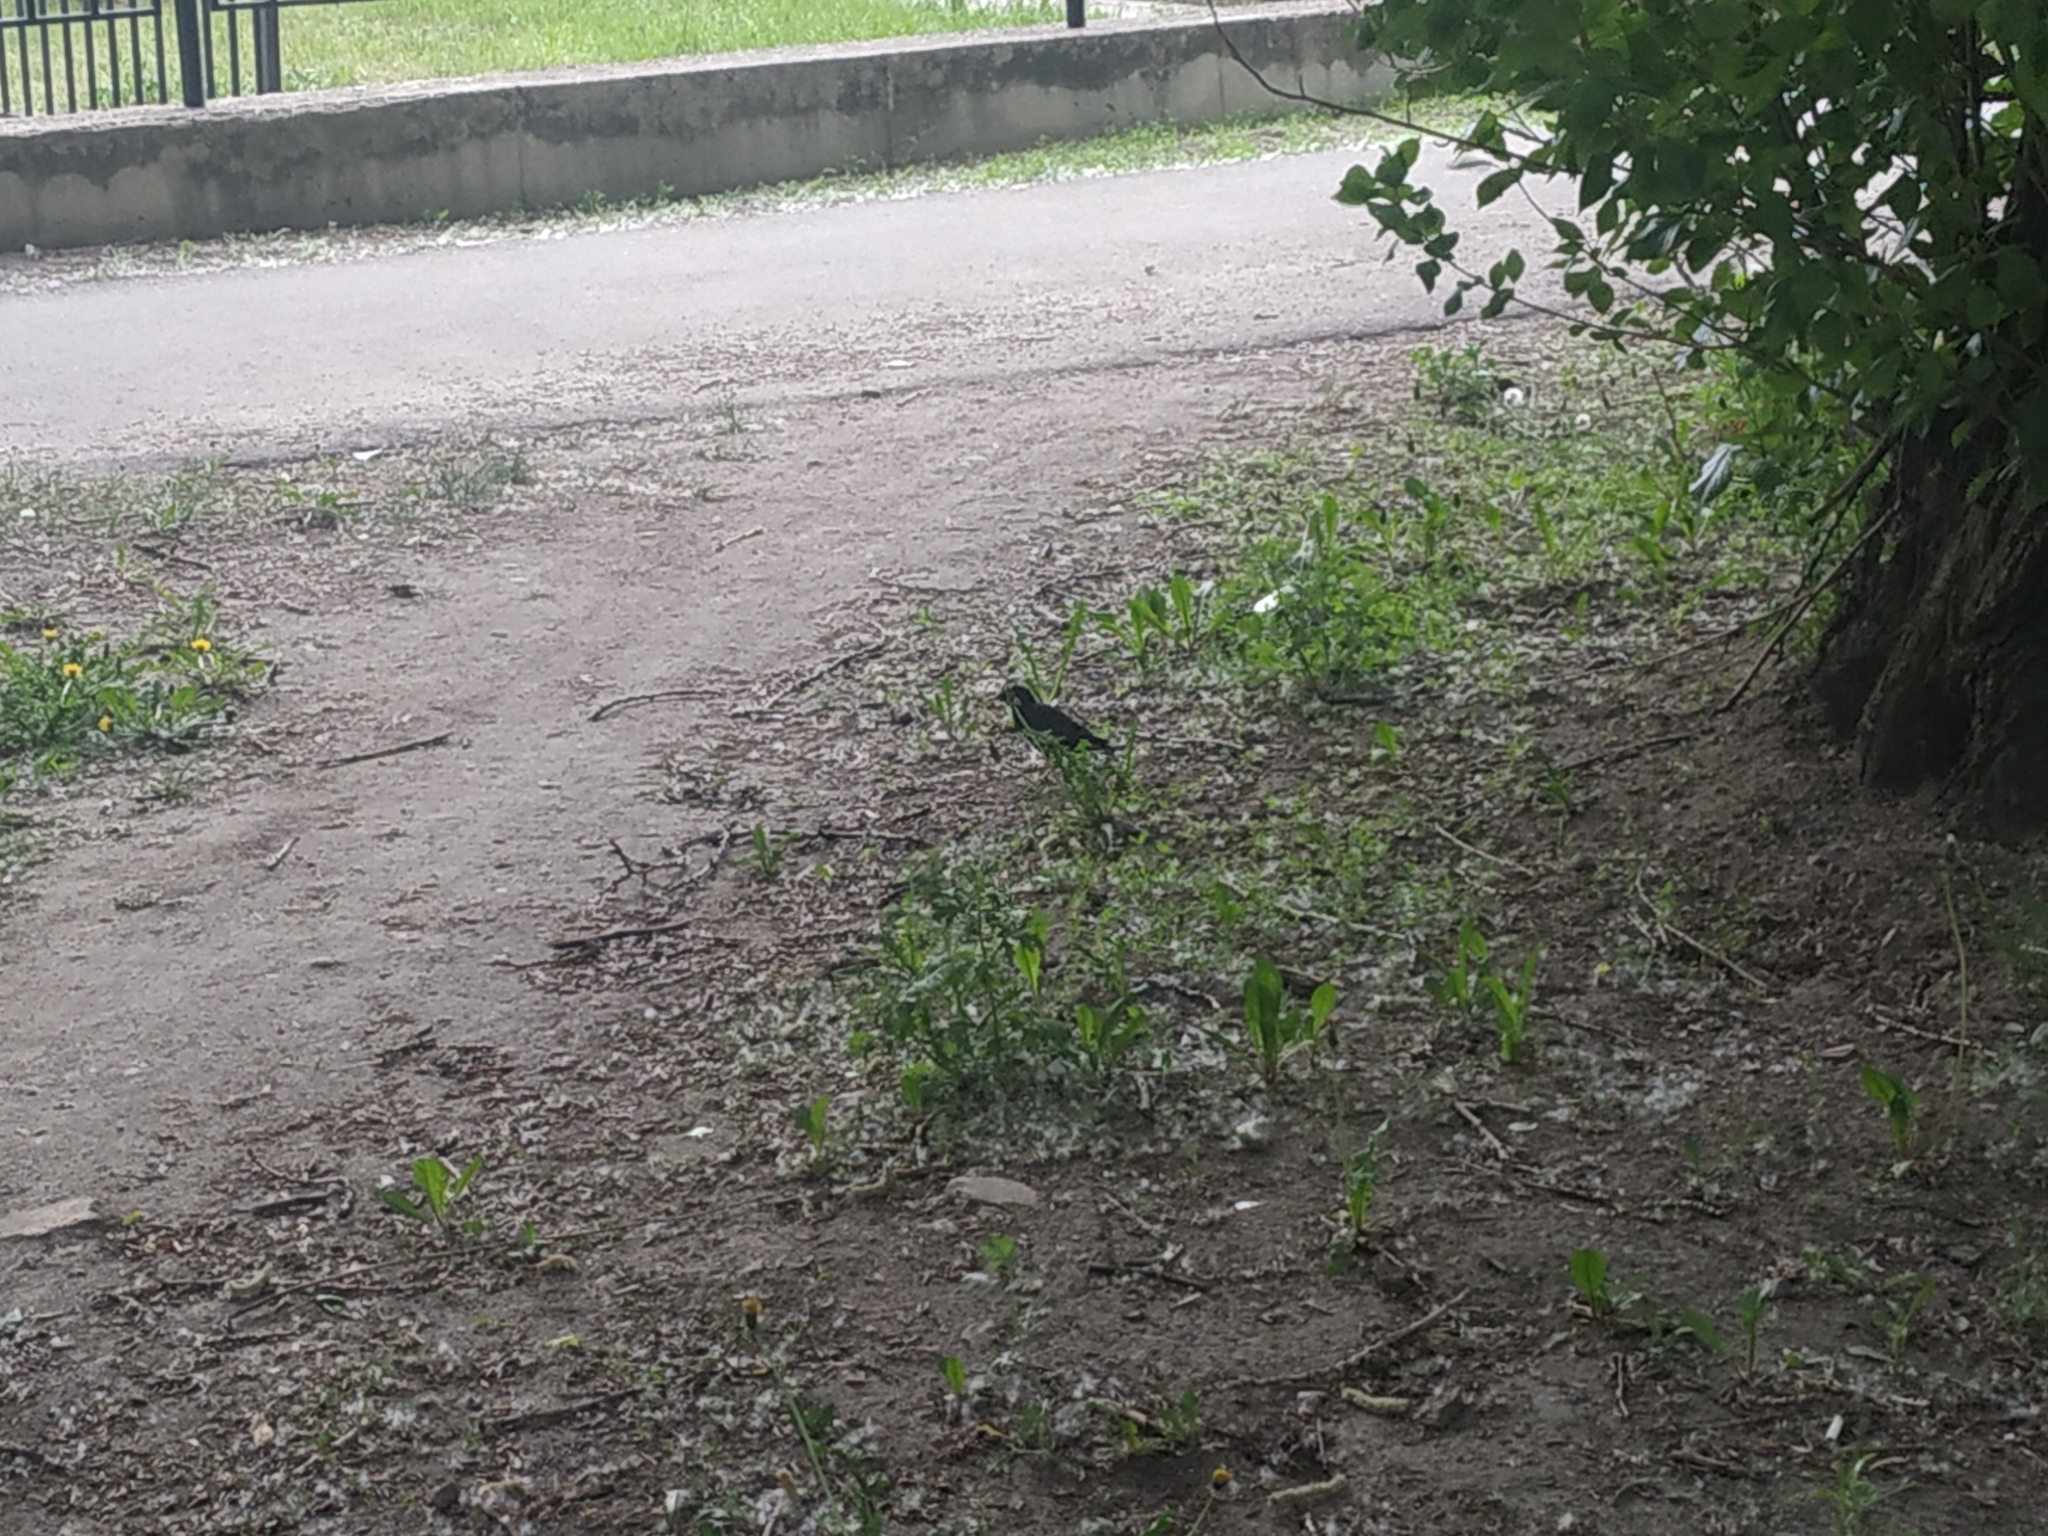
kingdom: Animalia
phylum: Chordata
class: Aves
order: Passeriformes
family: Sturnidae
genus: Sturnus
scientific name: Sturnus vulgaris
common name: Common starling
